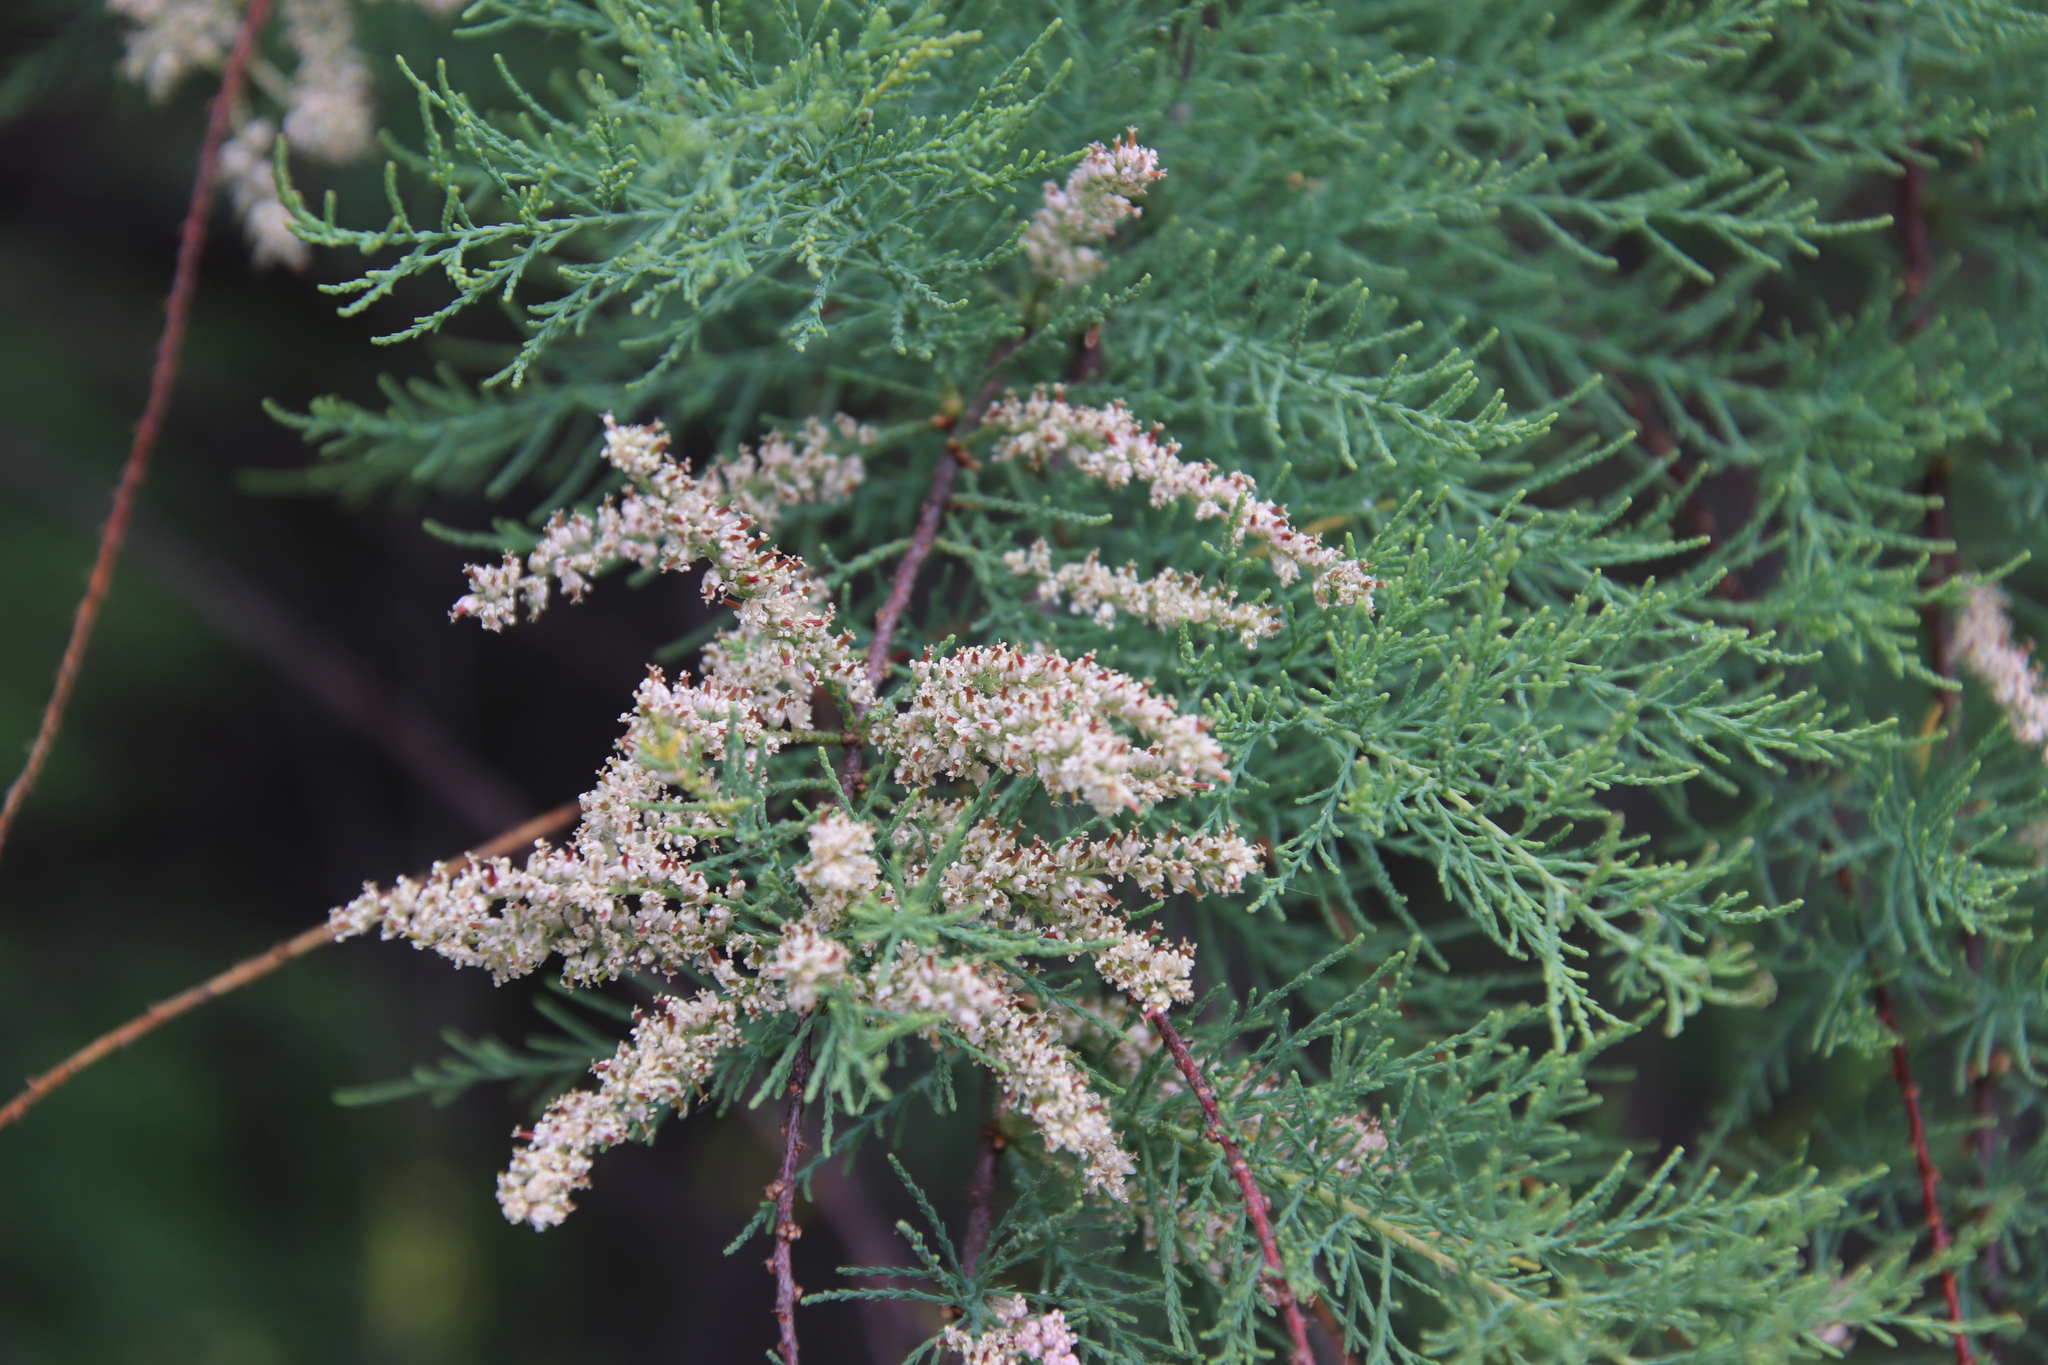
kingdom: Plantae
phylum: Tracheophyta
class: Magnoliopsida
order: Caryophyllales
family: Tamaricaceae
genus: Tamarix
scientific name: Tamarix ramosissima
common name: Pink tamarisk
